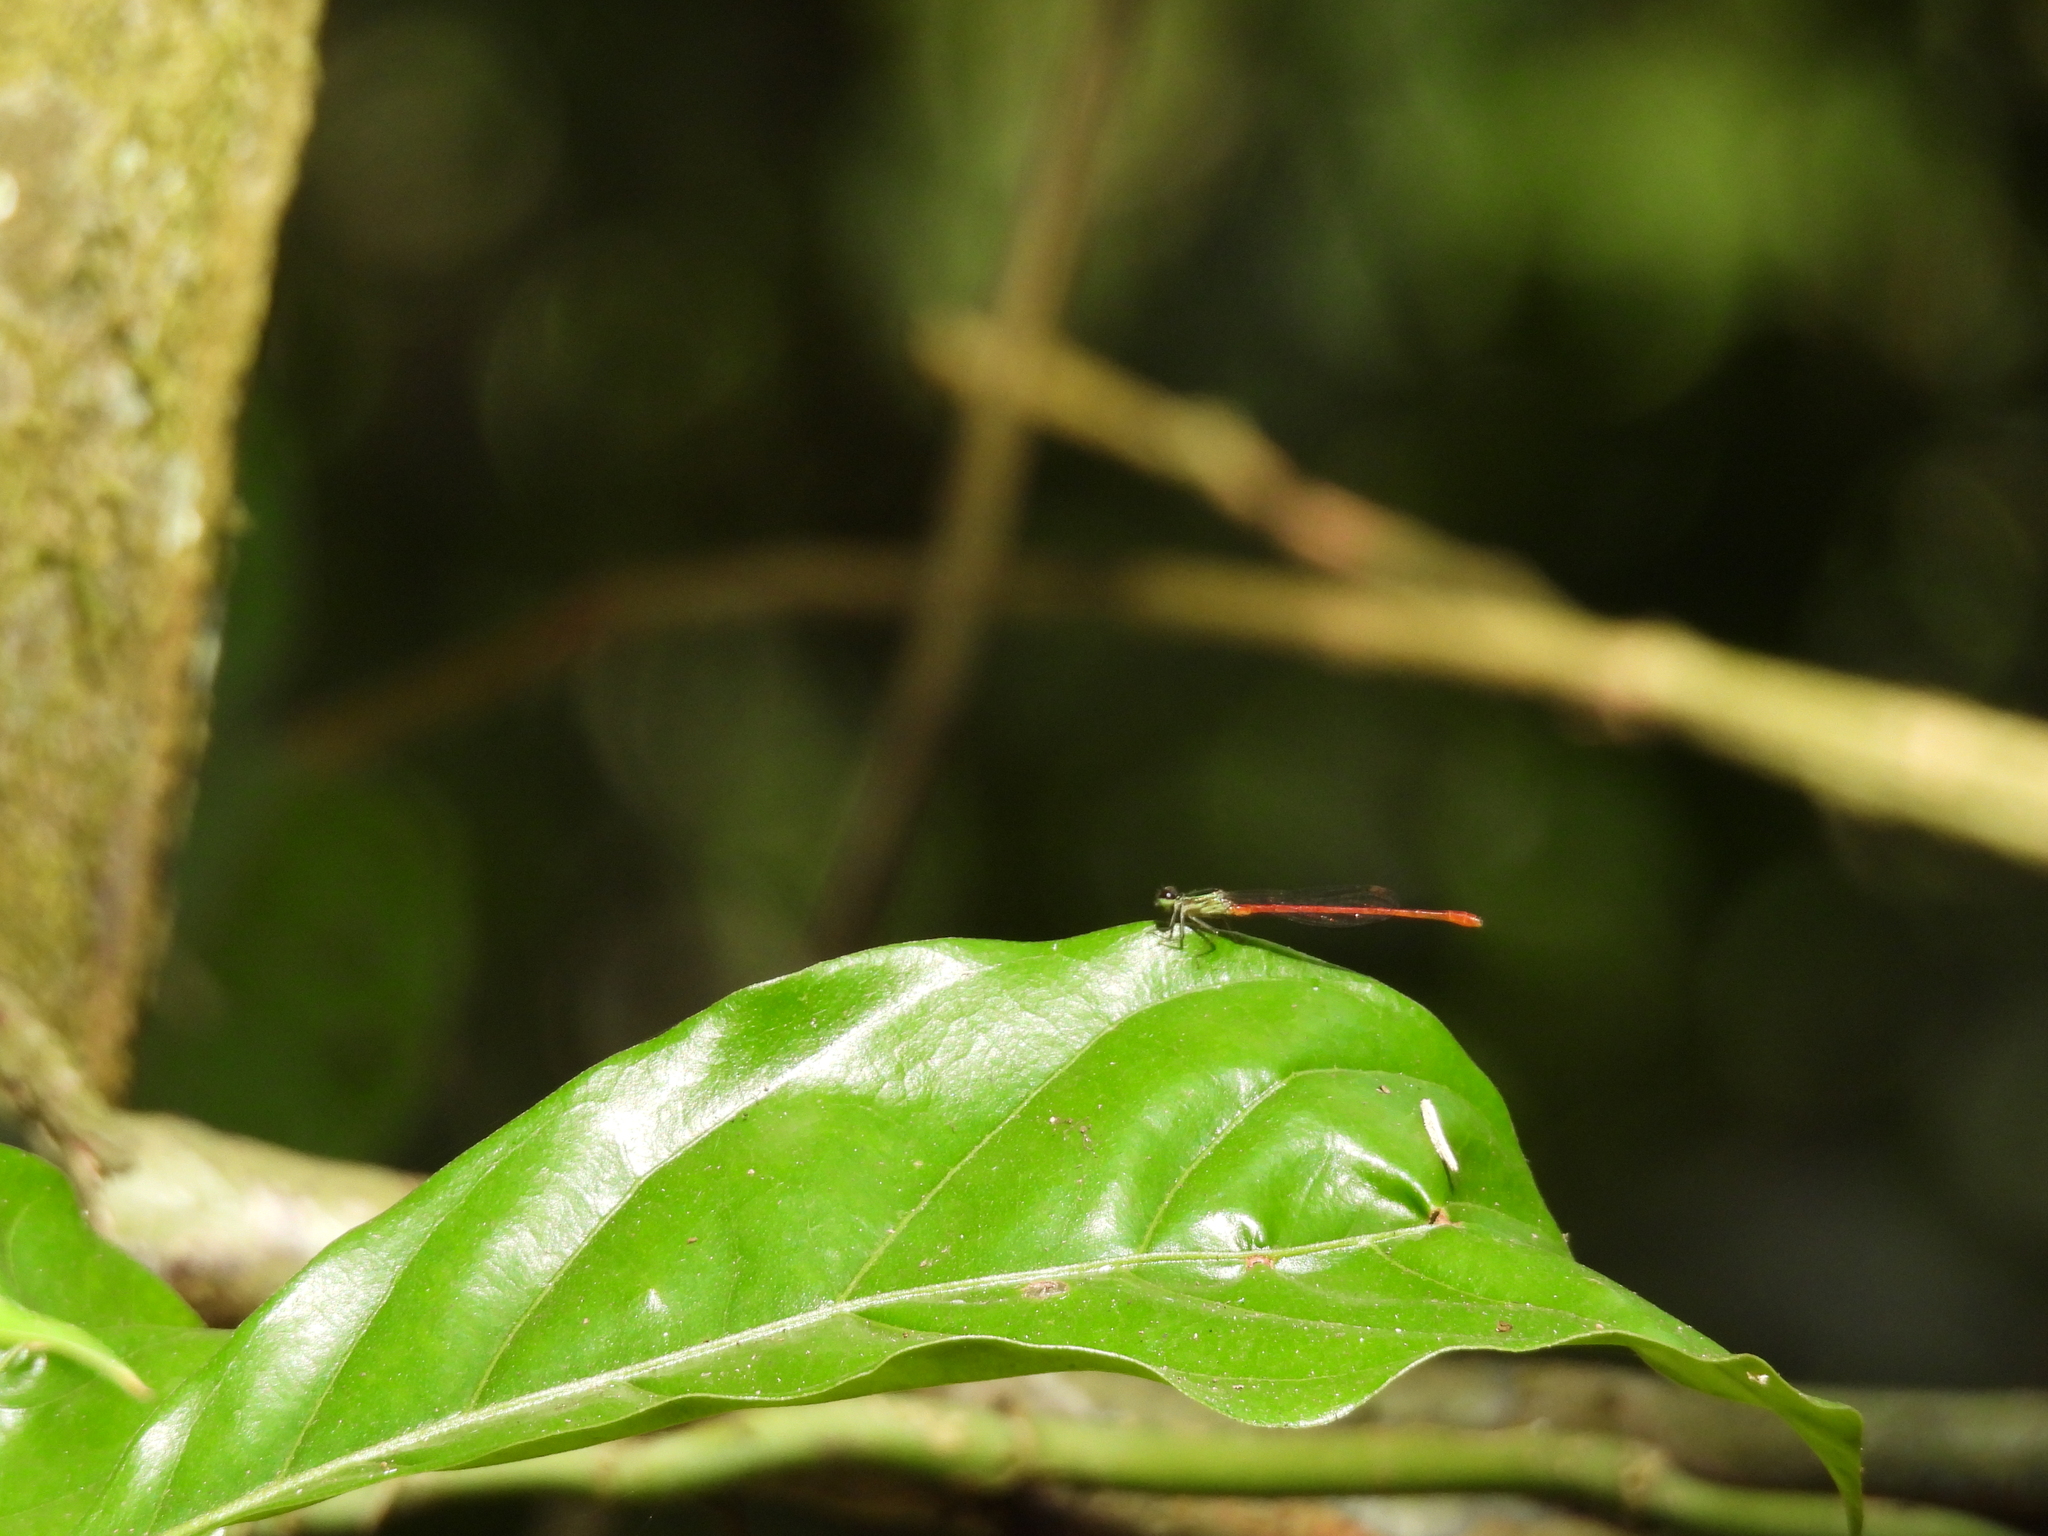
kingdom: Animalia
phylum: Arthropoda
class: Insecta
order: Odonata
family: Coenagrionidae
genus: Telebasis
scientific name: Telebasis filiola
